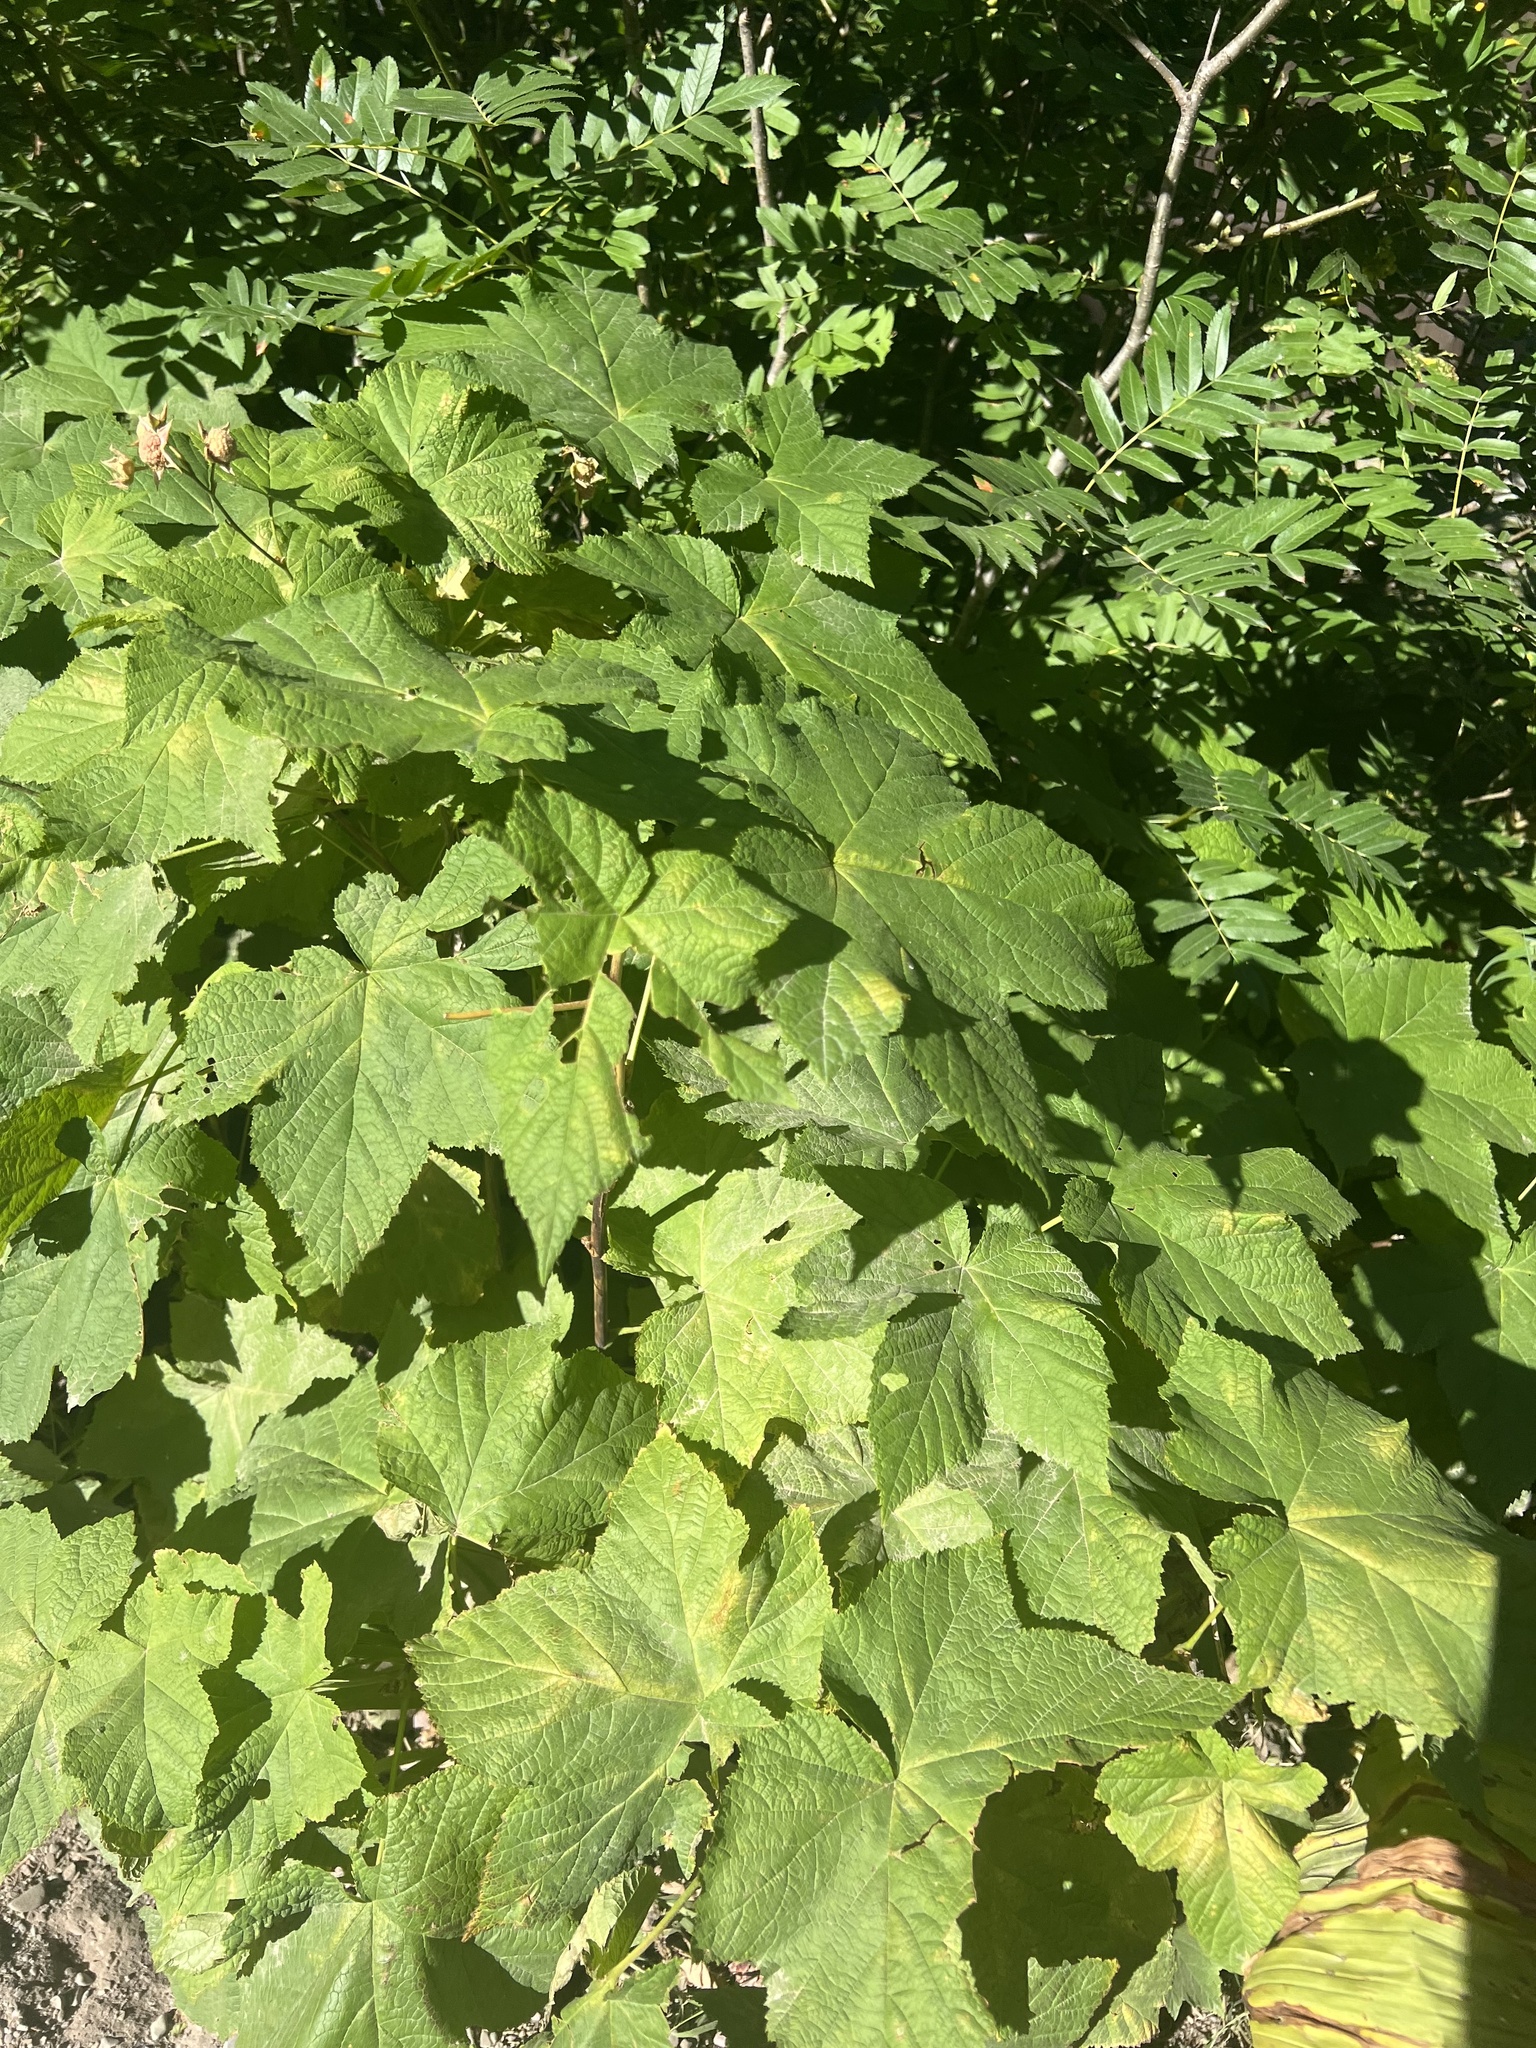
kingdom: Plantae
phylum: Tracheophyta
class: Magnoliopsida
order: Rosales
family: Rosaceae
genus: Rubus
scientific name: Rubus parviflorus
